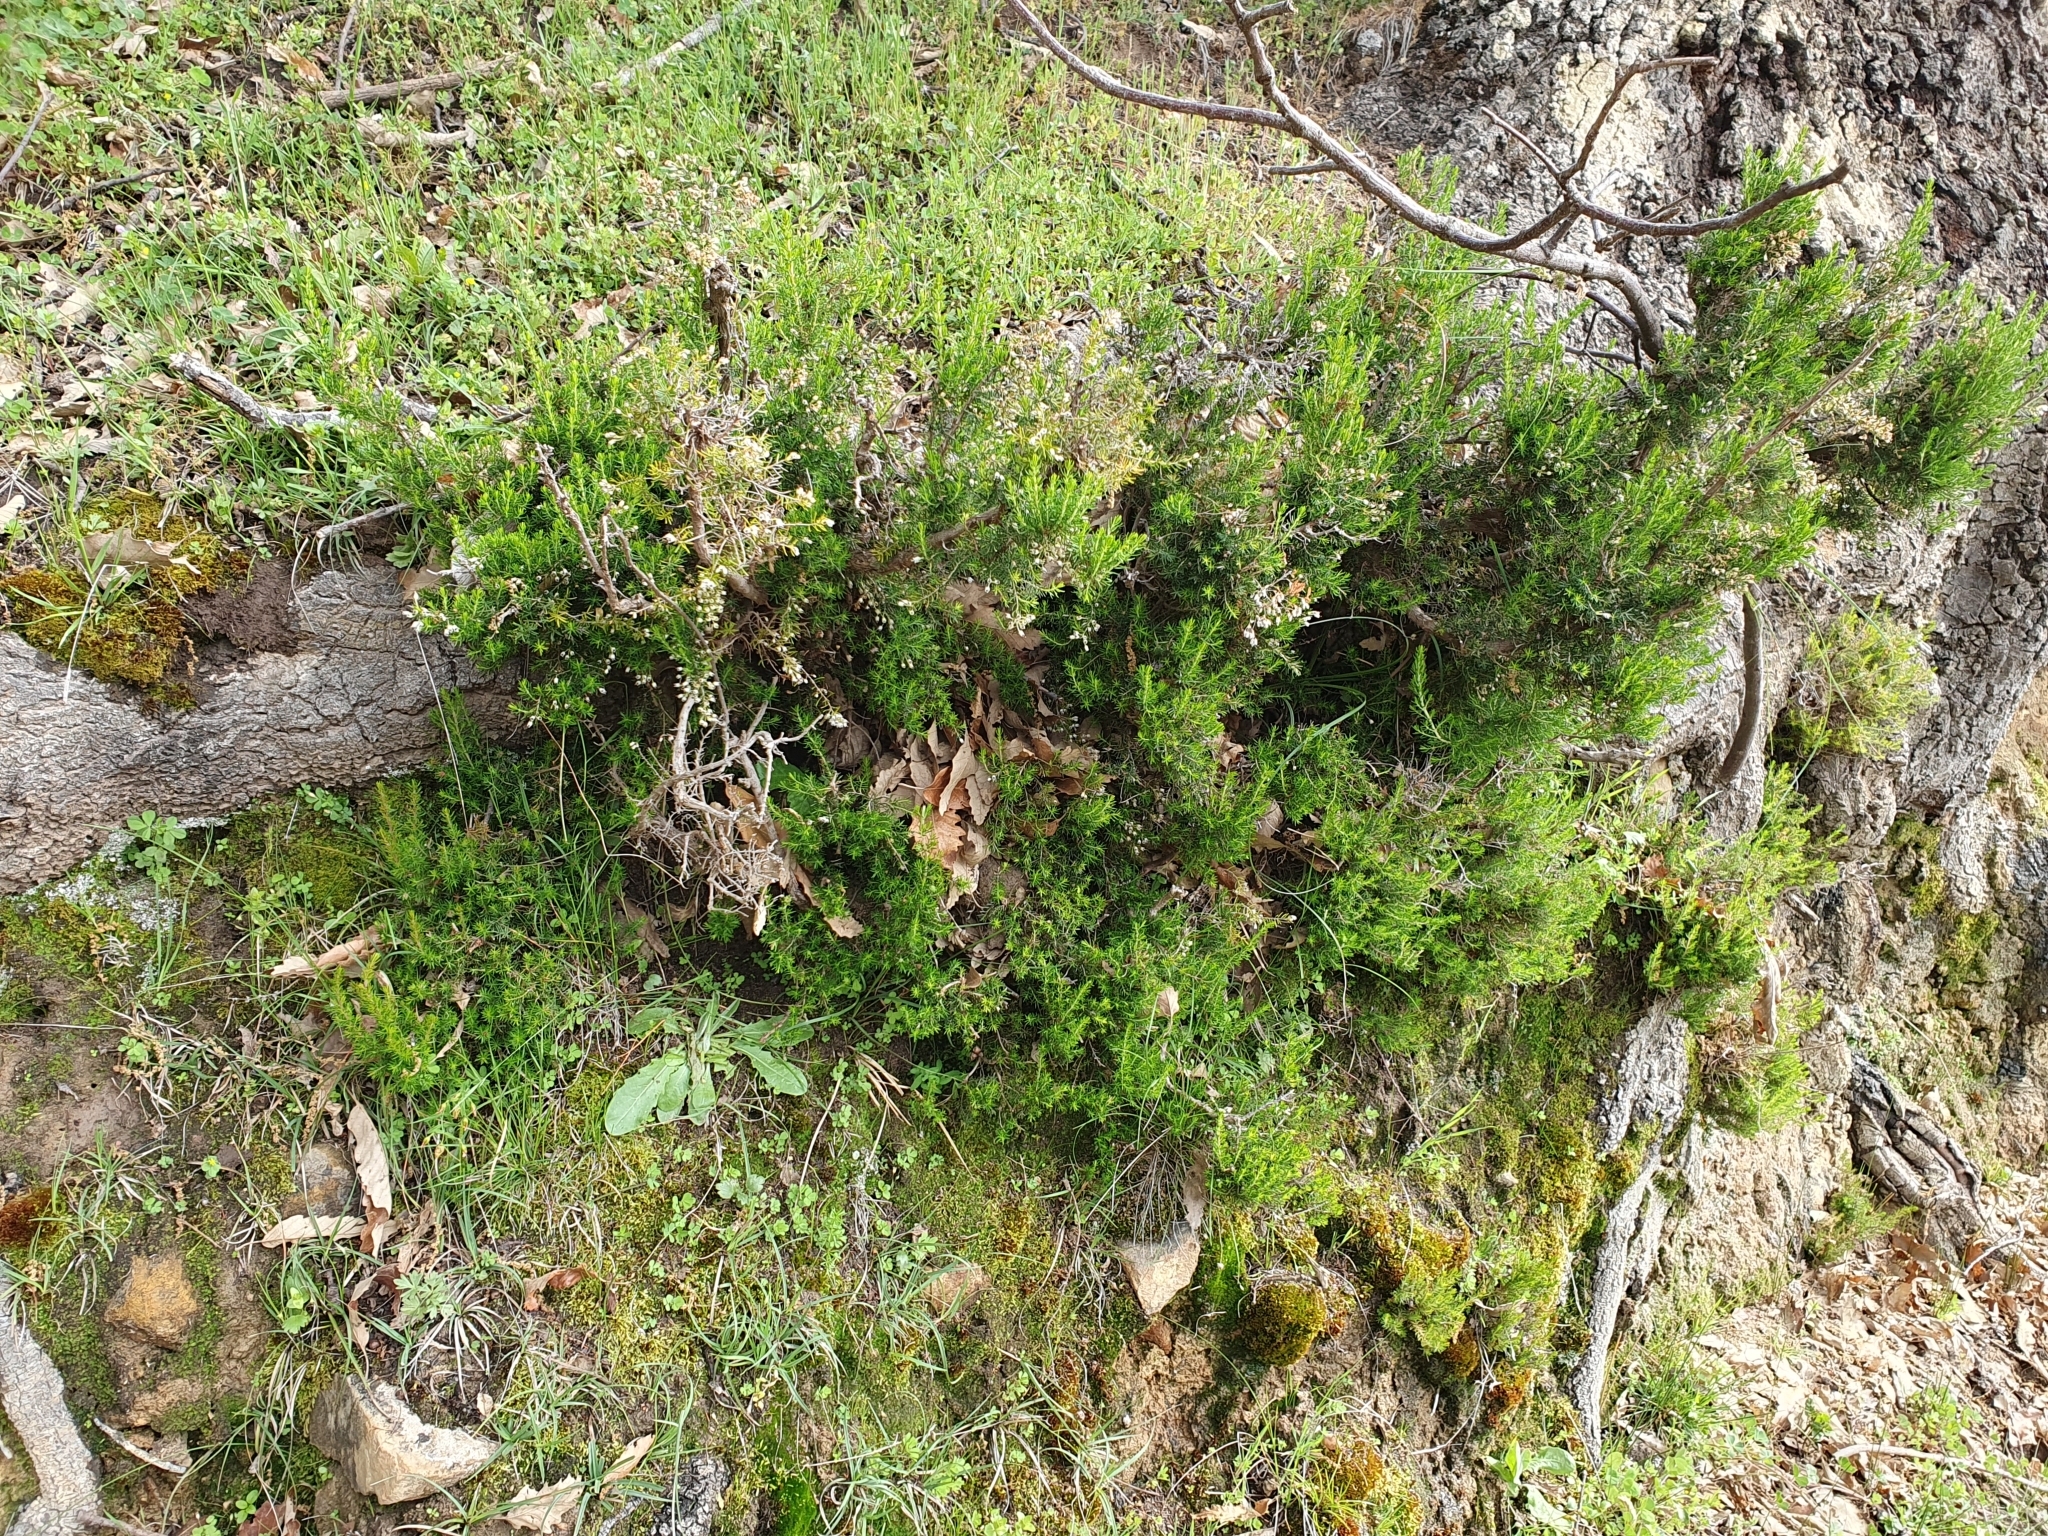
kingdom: Plantae
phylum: Tracheophyta
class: Magnoliopsida
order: Ericales
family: Ericaceae
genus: Erica
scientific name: Erica arborea
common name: Tree heath
